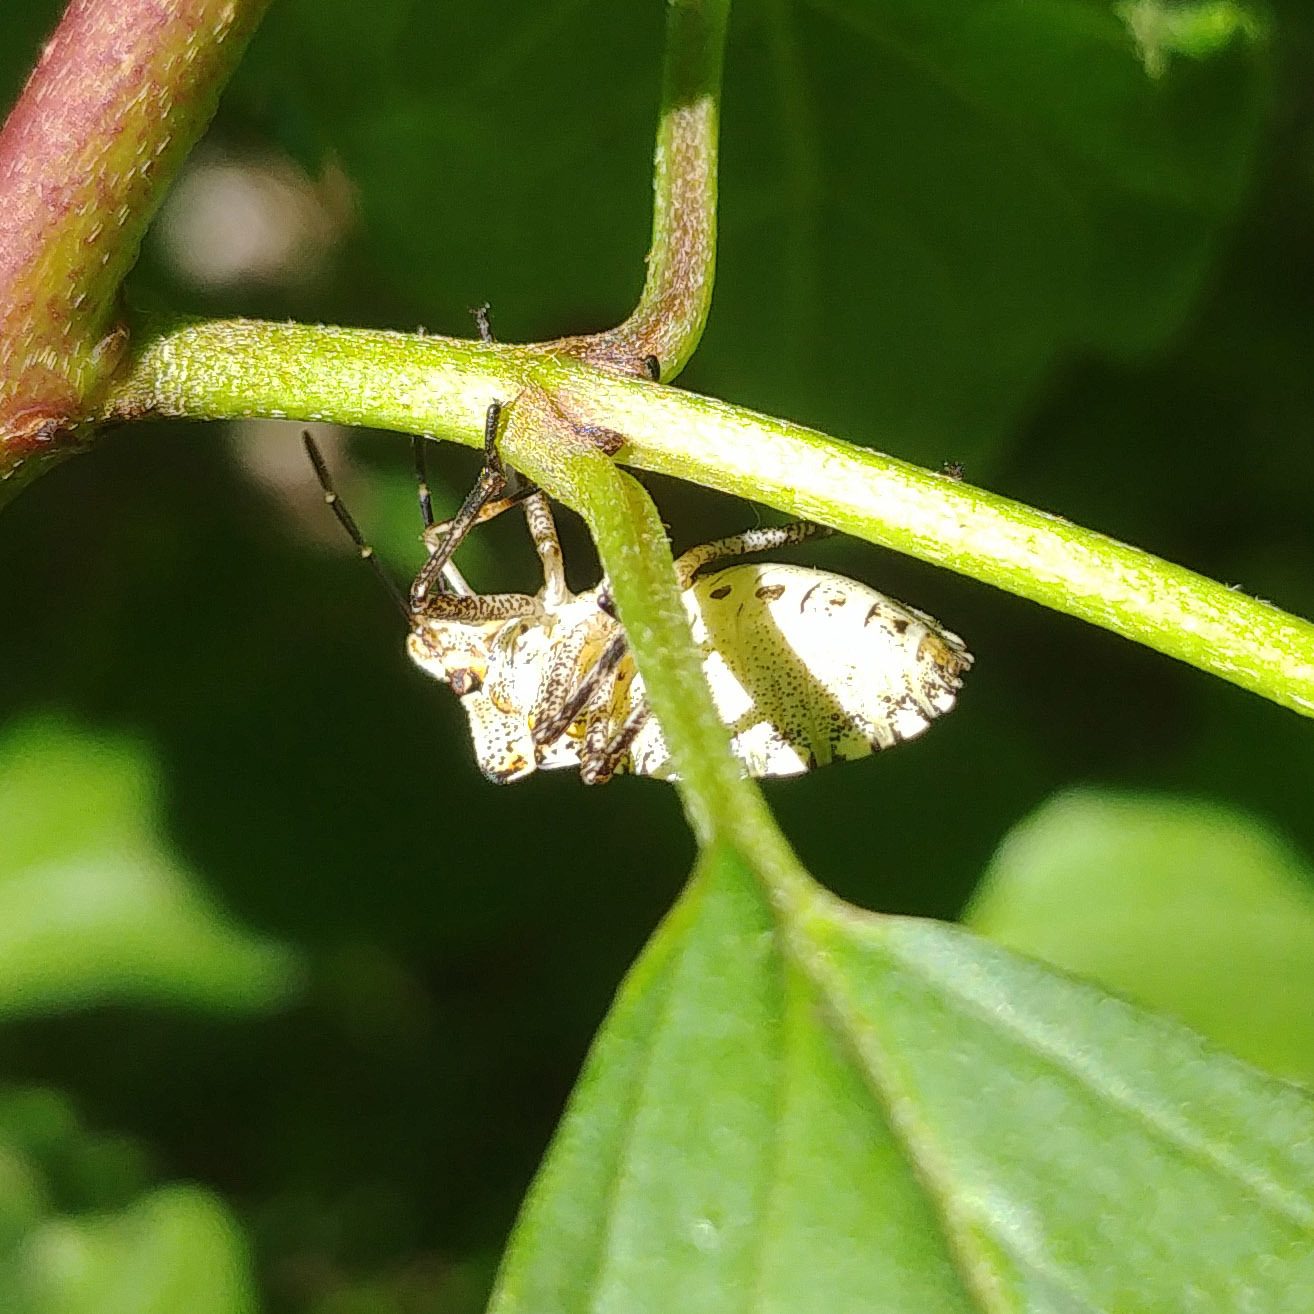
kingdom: Animalia
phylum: Arthropoda
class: Insecta
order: Hemiptera
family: Pentatomidae
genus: Pentatoma
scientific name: Pentatoma rufipes
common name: Forest bug
